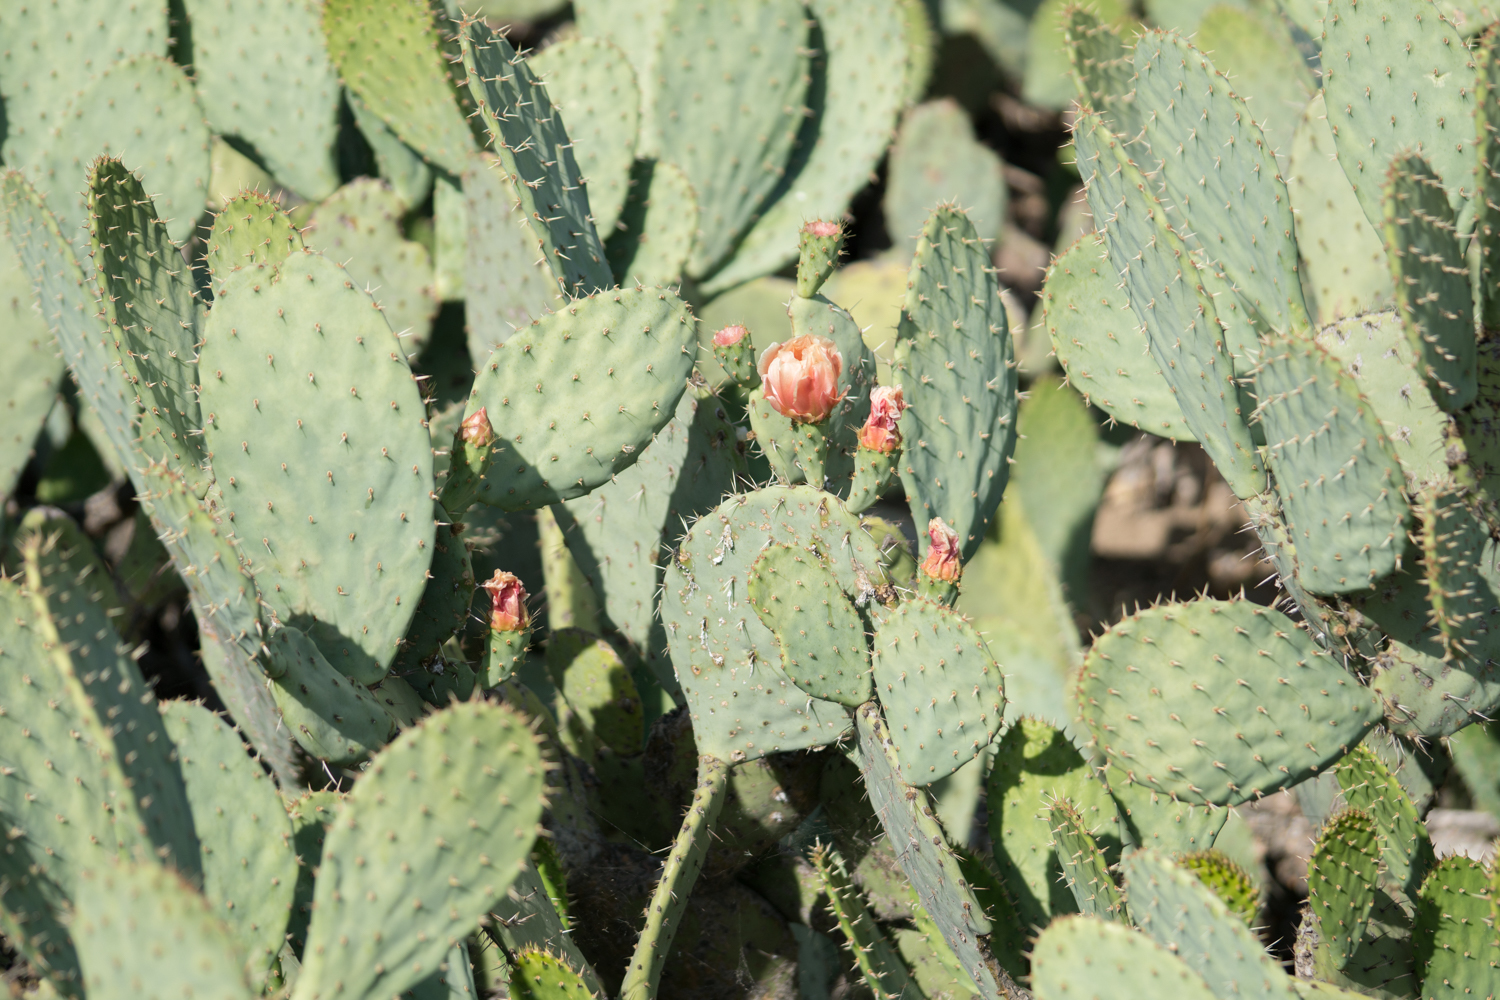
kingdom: Plantae
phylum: Tracheophyta
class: Magnoliopsida
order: Caryophyllales
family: Cactaceae
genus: Opuntia
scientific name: Opuntia
